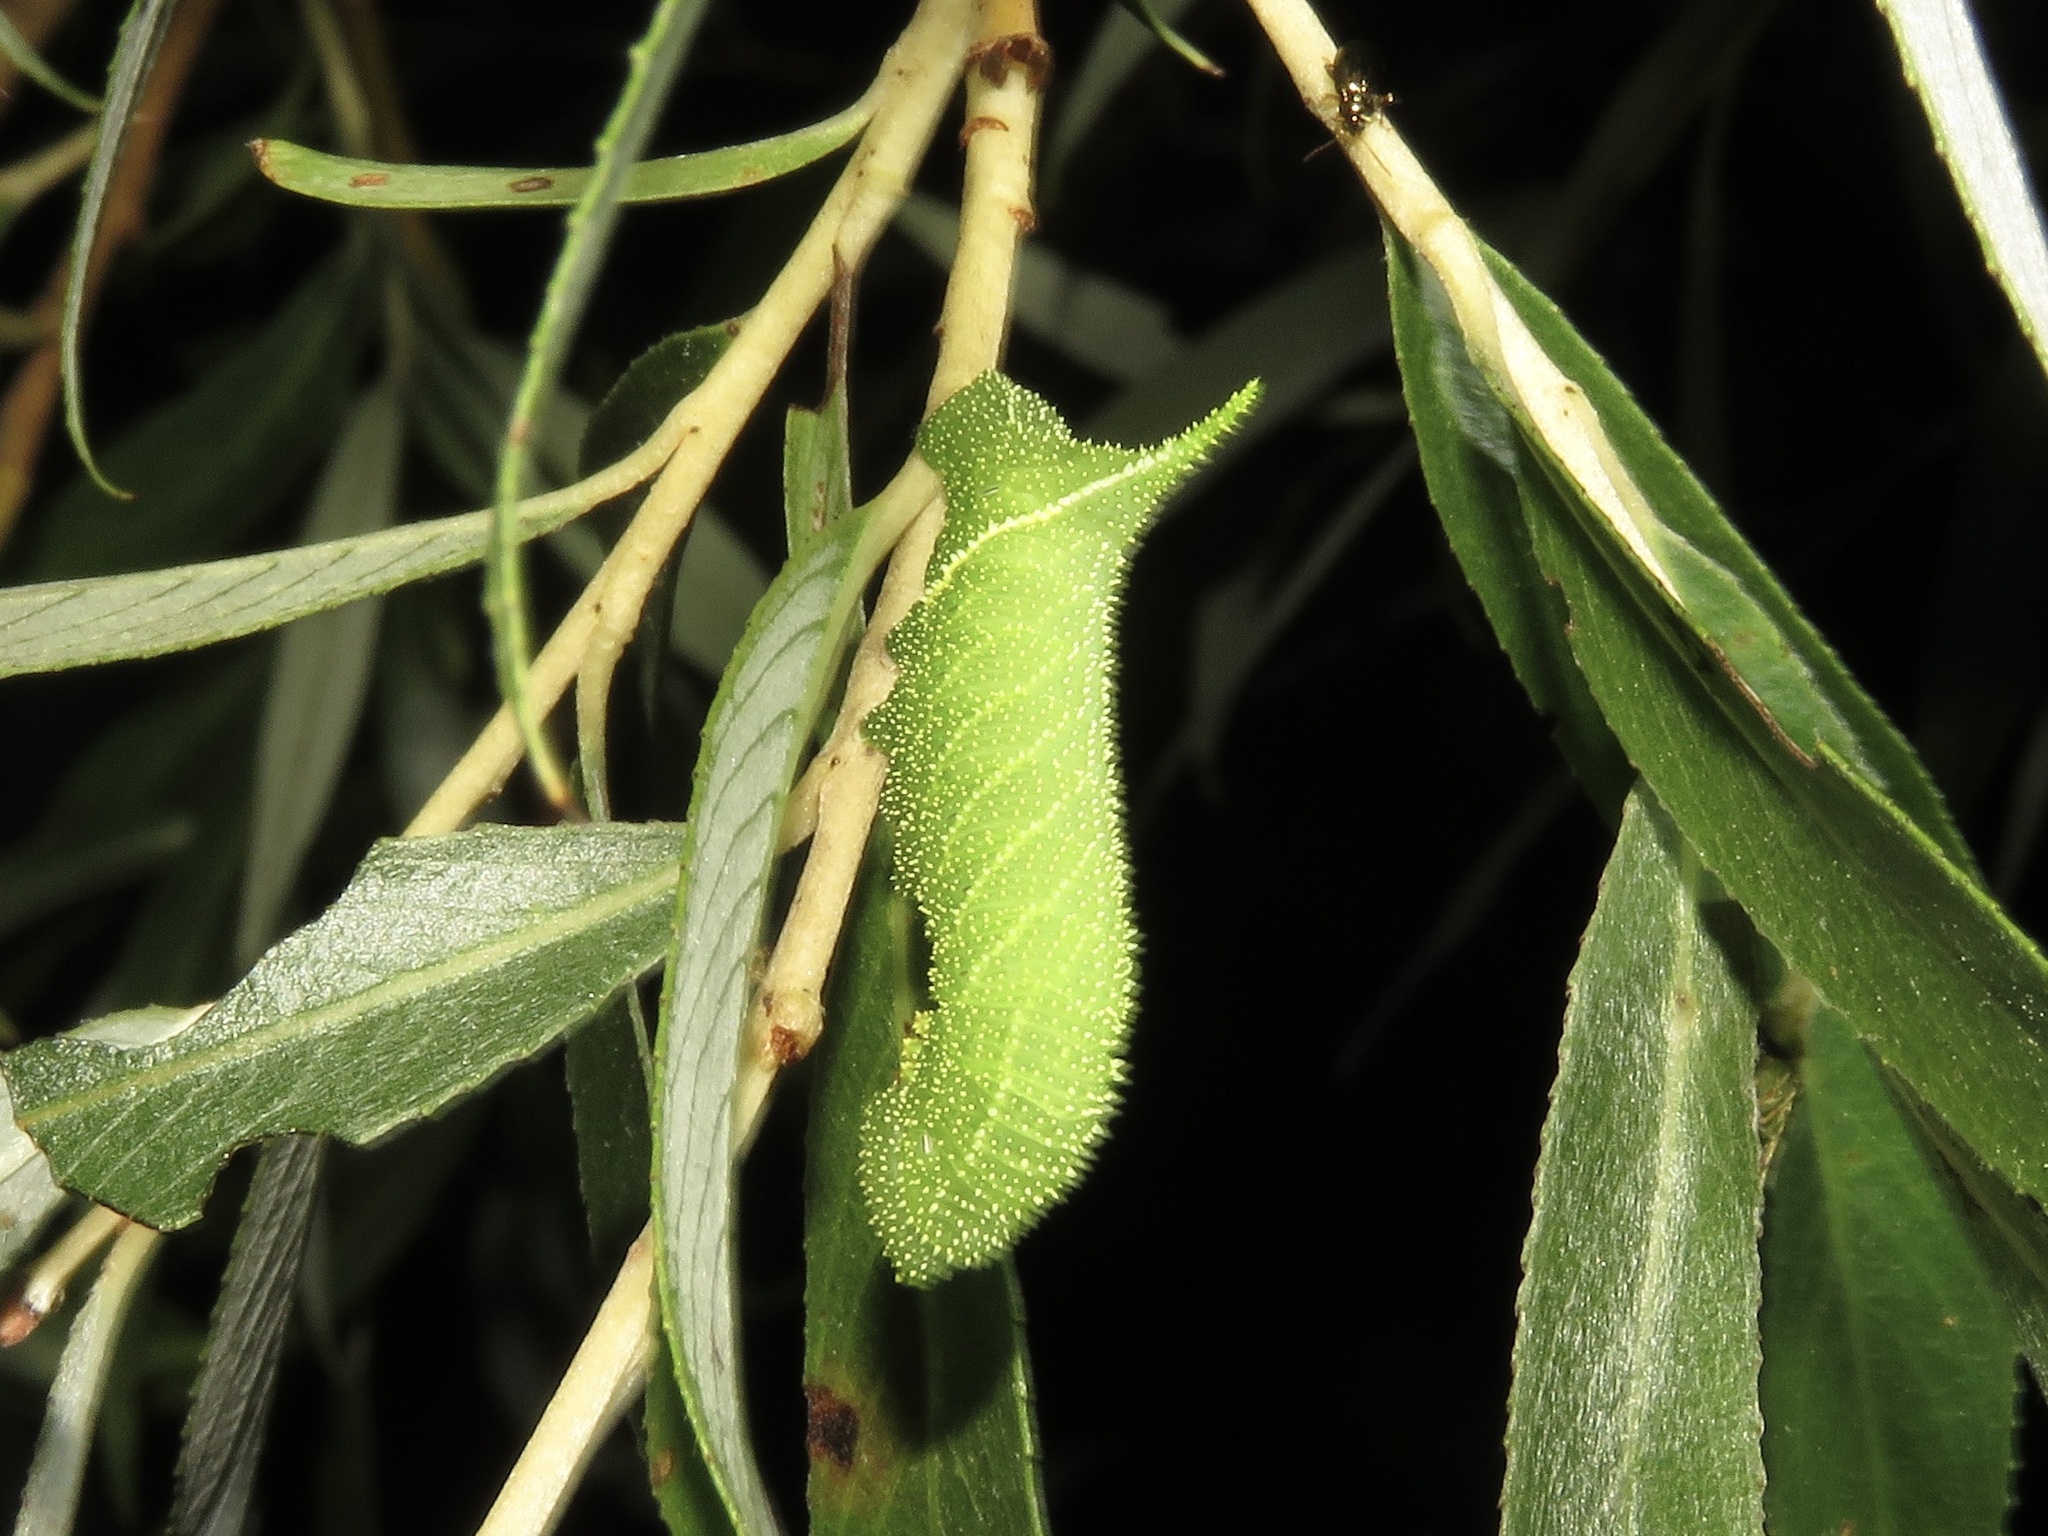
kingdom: Animalia
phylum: Arthropoda
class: Insecta
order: Lepidoptera
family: Sphingidae
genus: Paonias
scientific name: Paonias excaecata
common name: Blind-eyed sphinx
